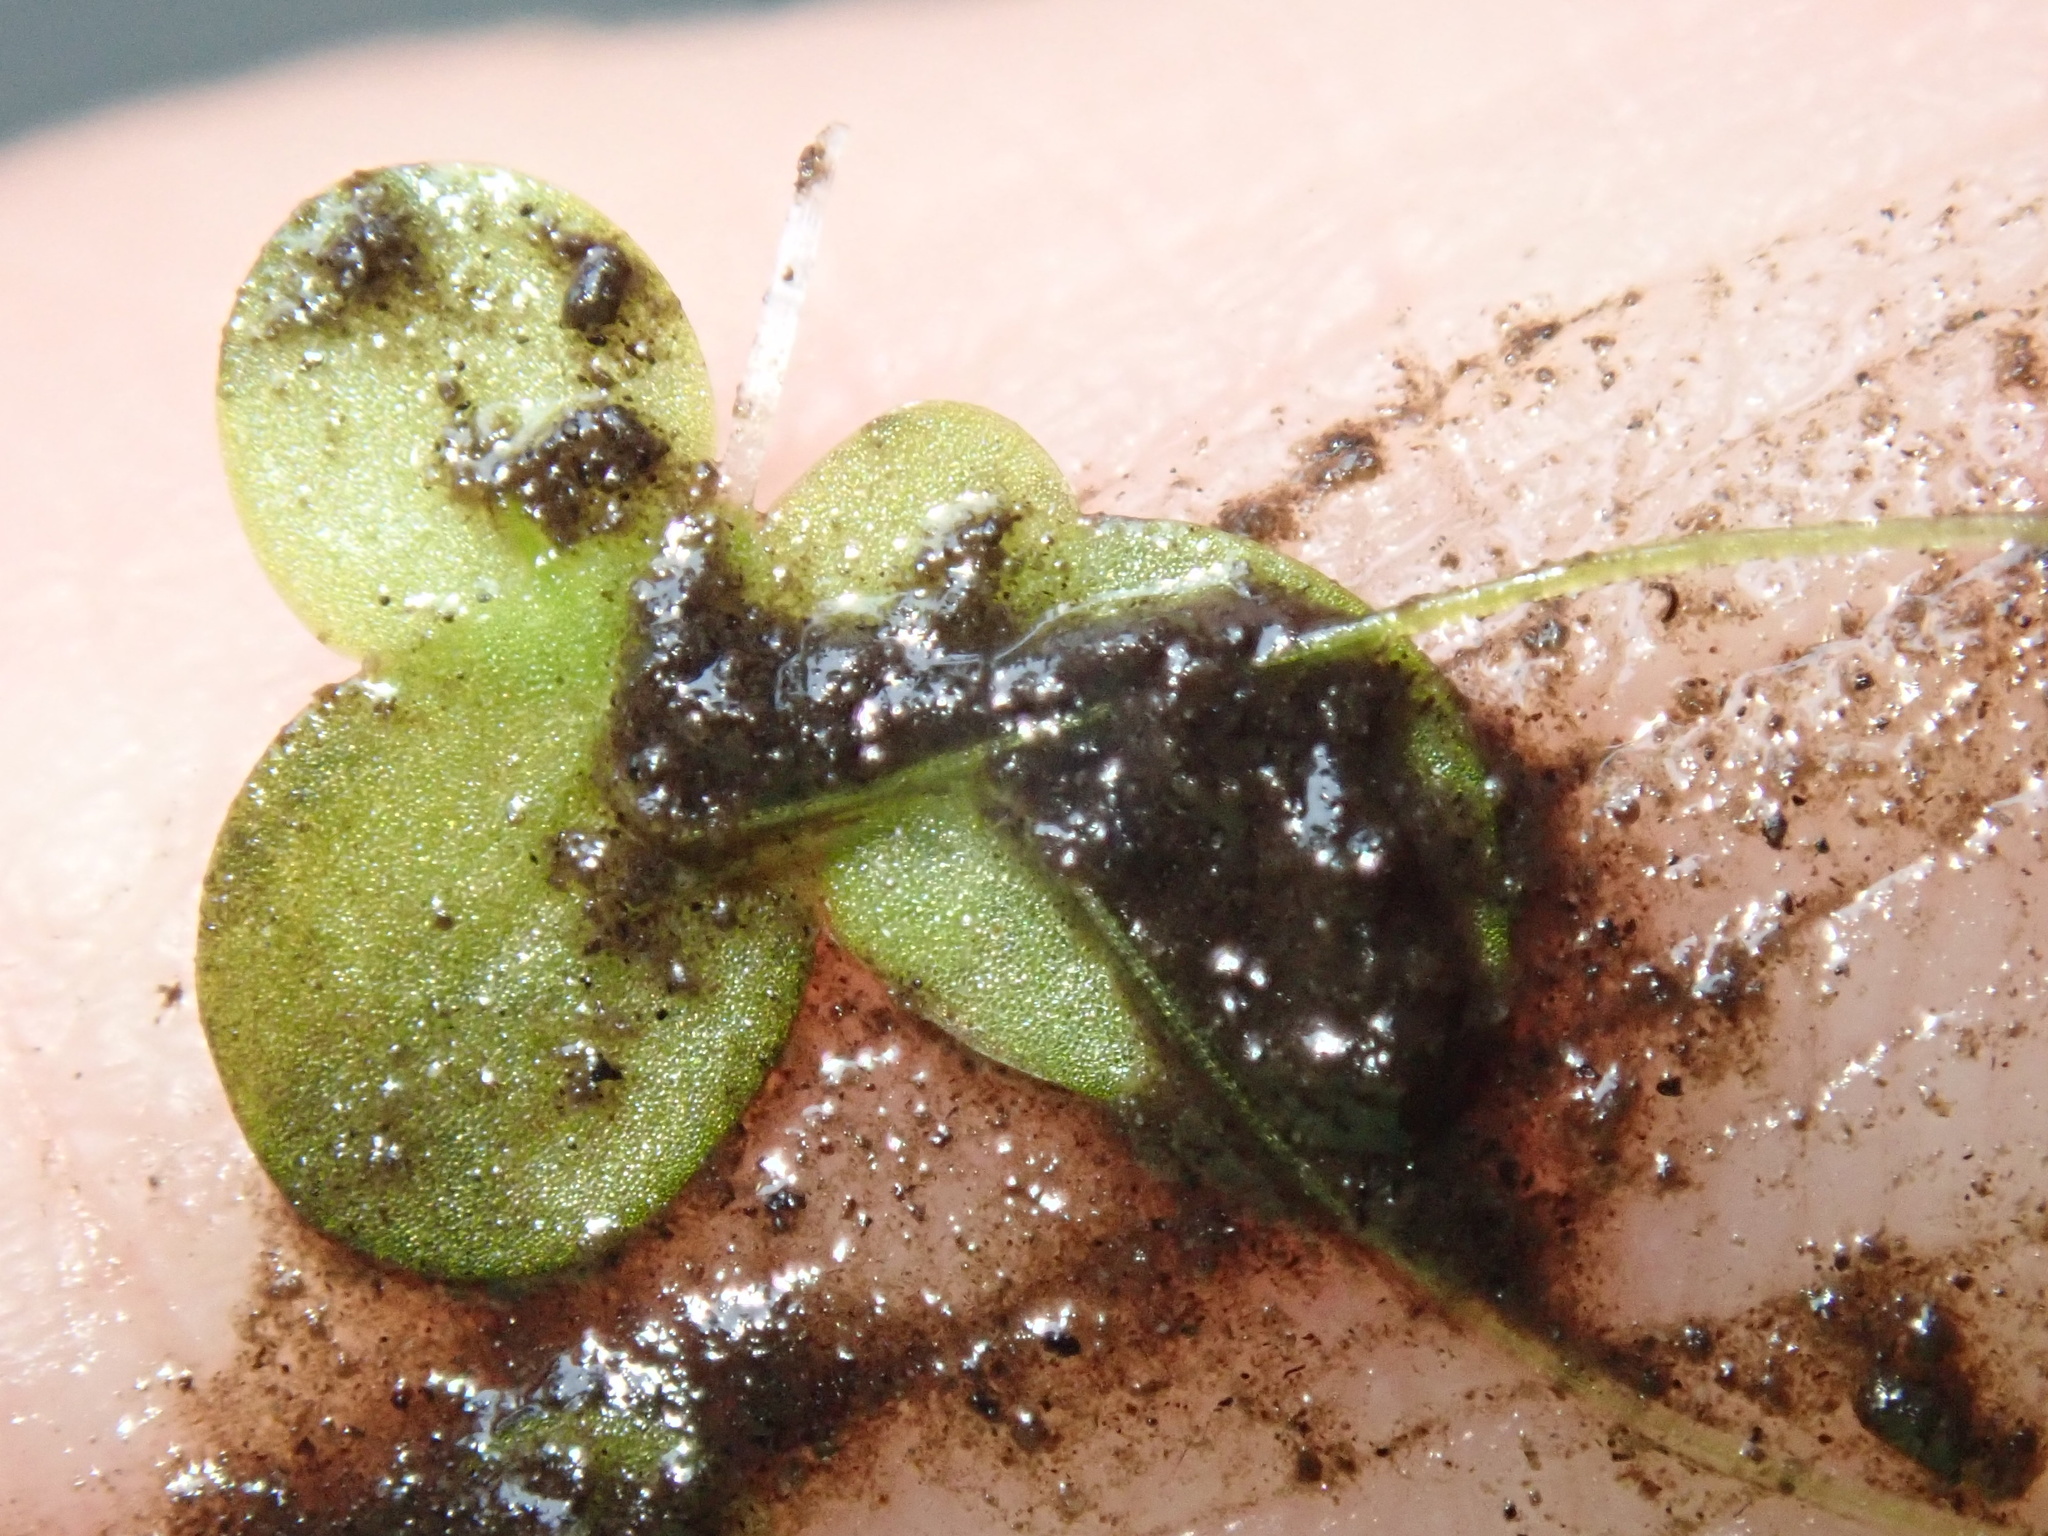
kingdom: Plantae
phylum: Tracheophyta
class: Liliopsida
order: Alismatales
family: Araceae
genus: Lemna
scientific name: Lemna minor
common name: Common duckweed
